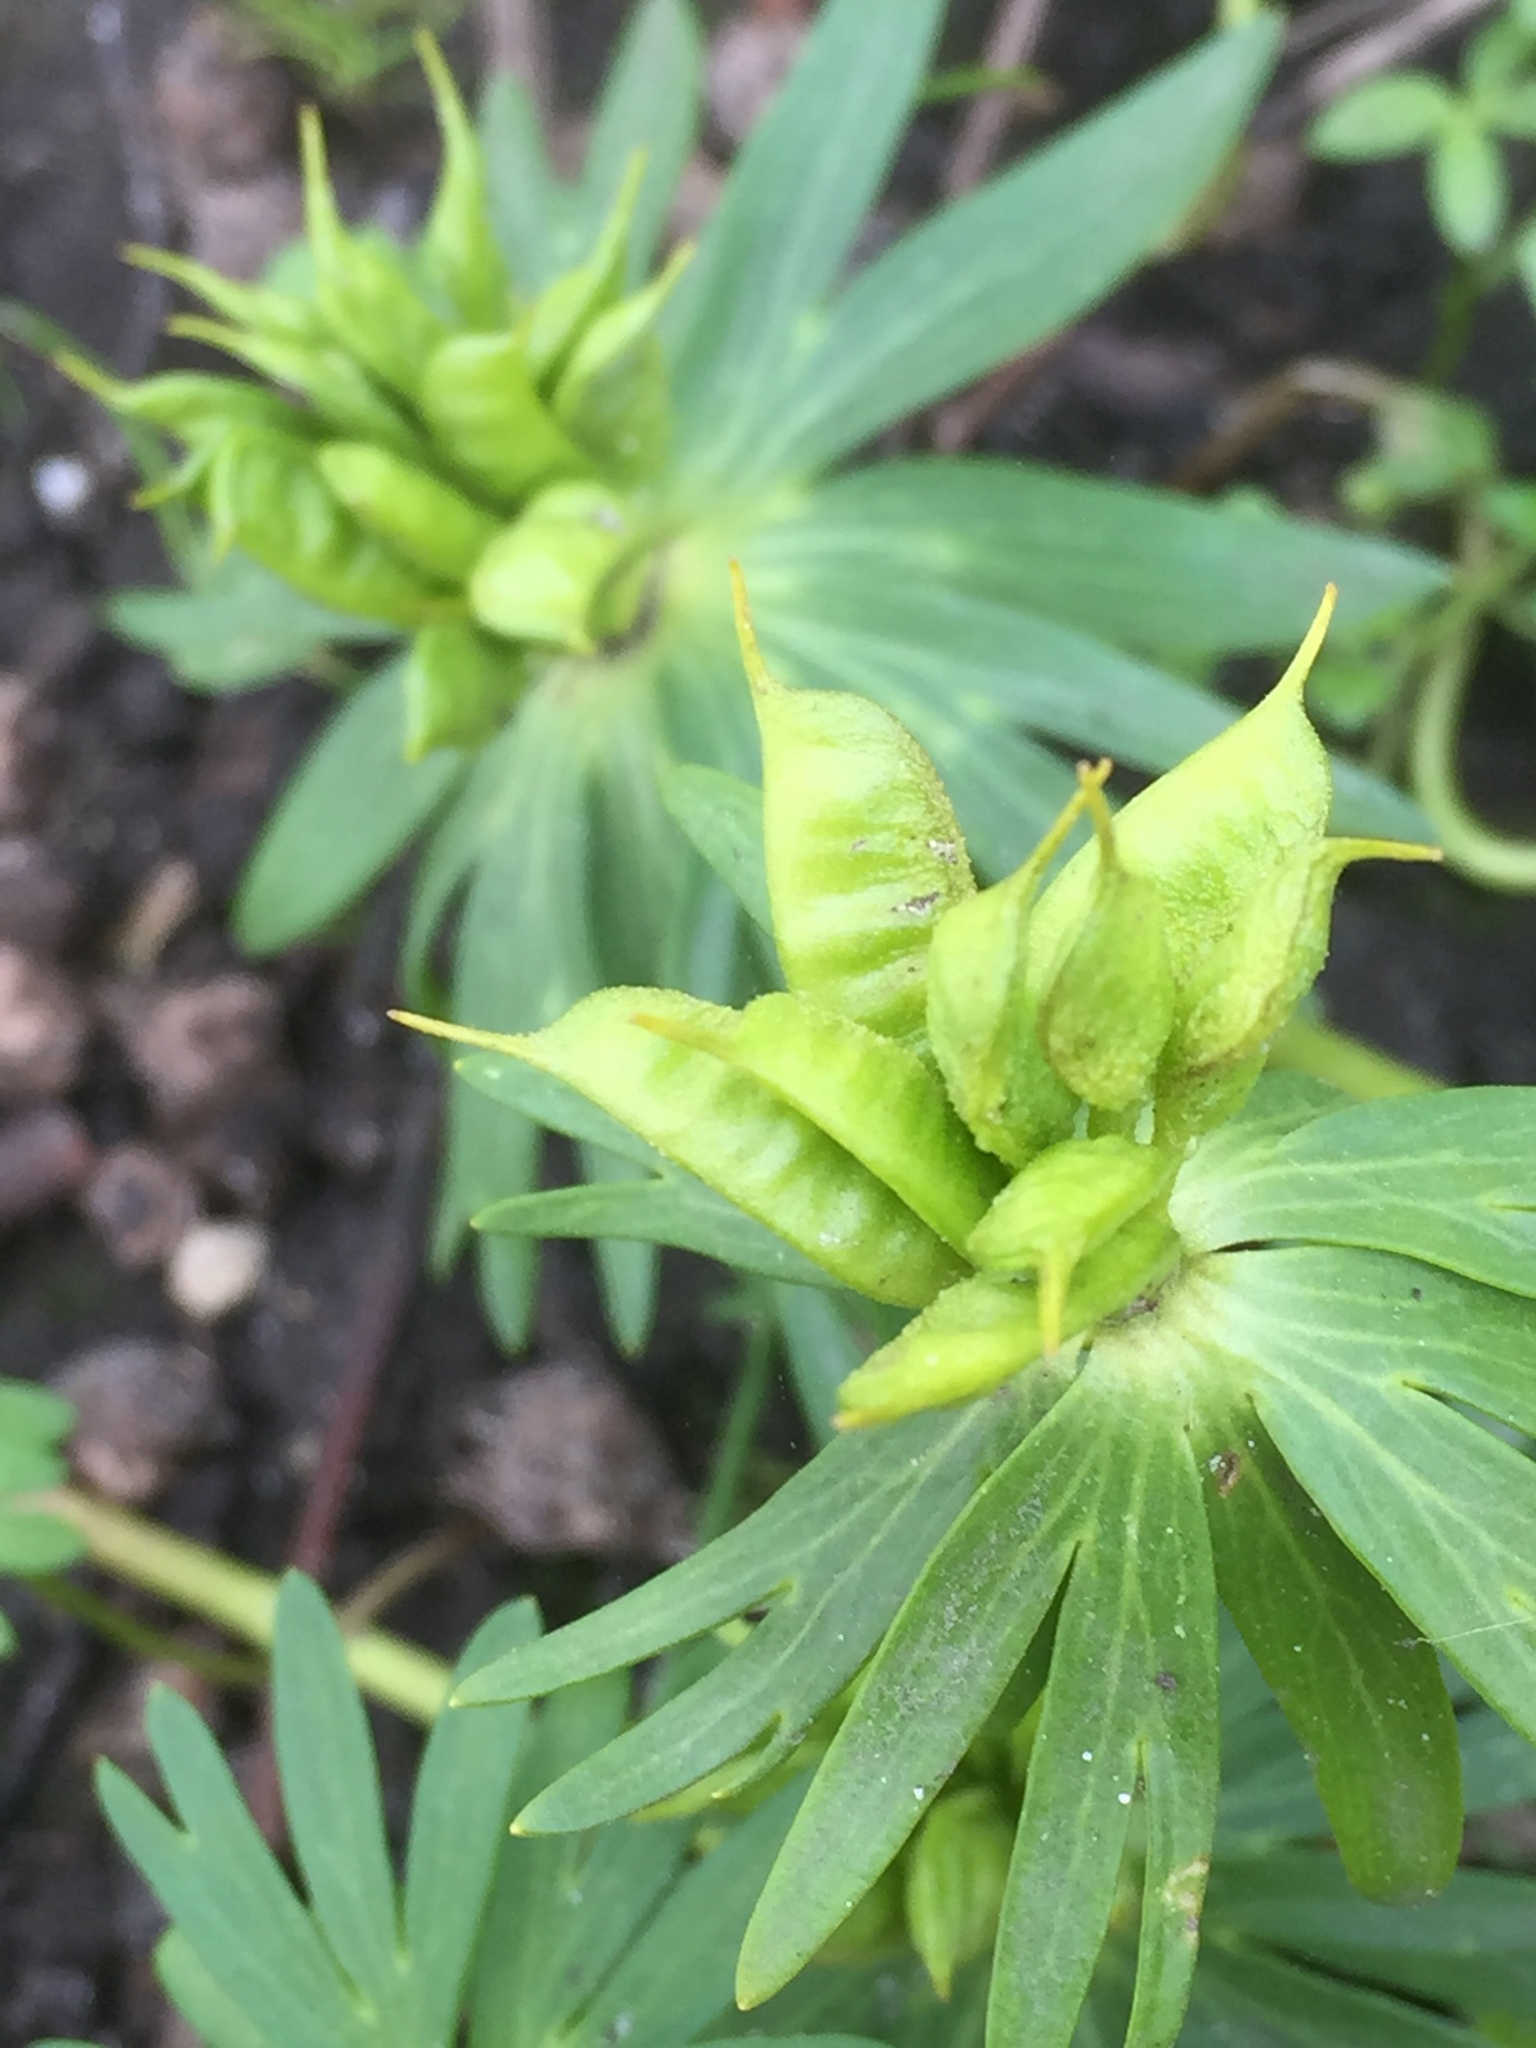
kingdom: Plantae
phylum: Tracheophyta
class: Magnoliopsida
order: Ranunculales
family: Ranunculaceae
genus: Eranthis
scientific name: Eranthis cilicica
